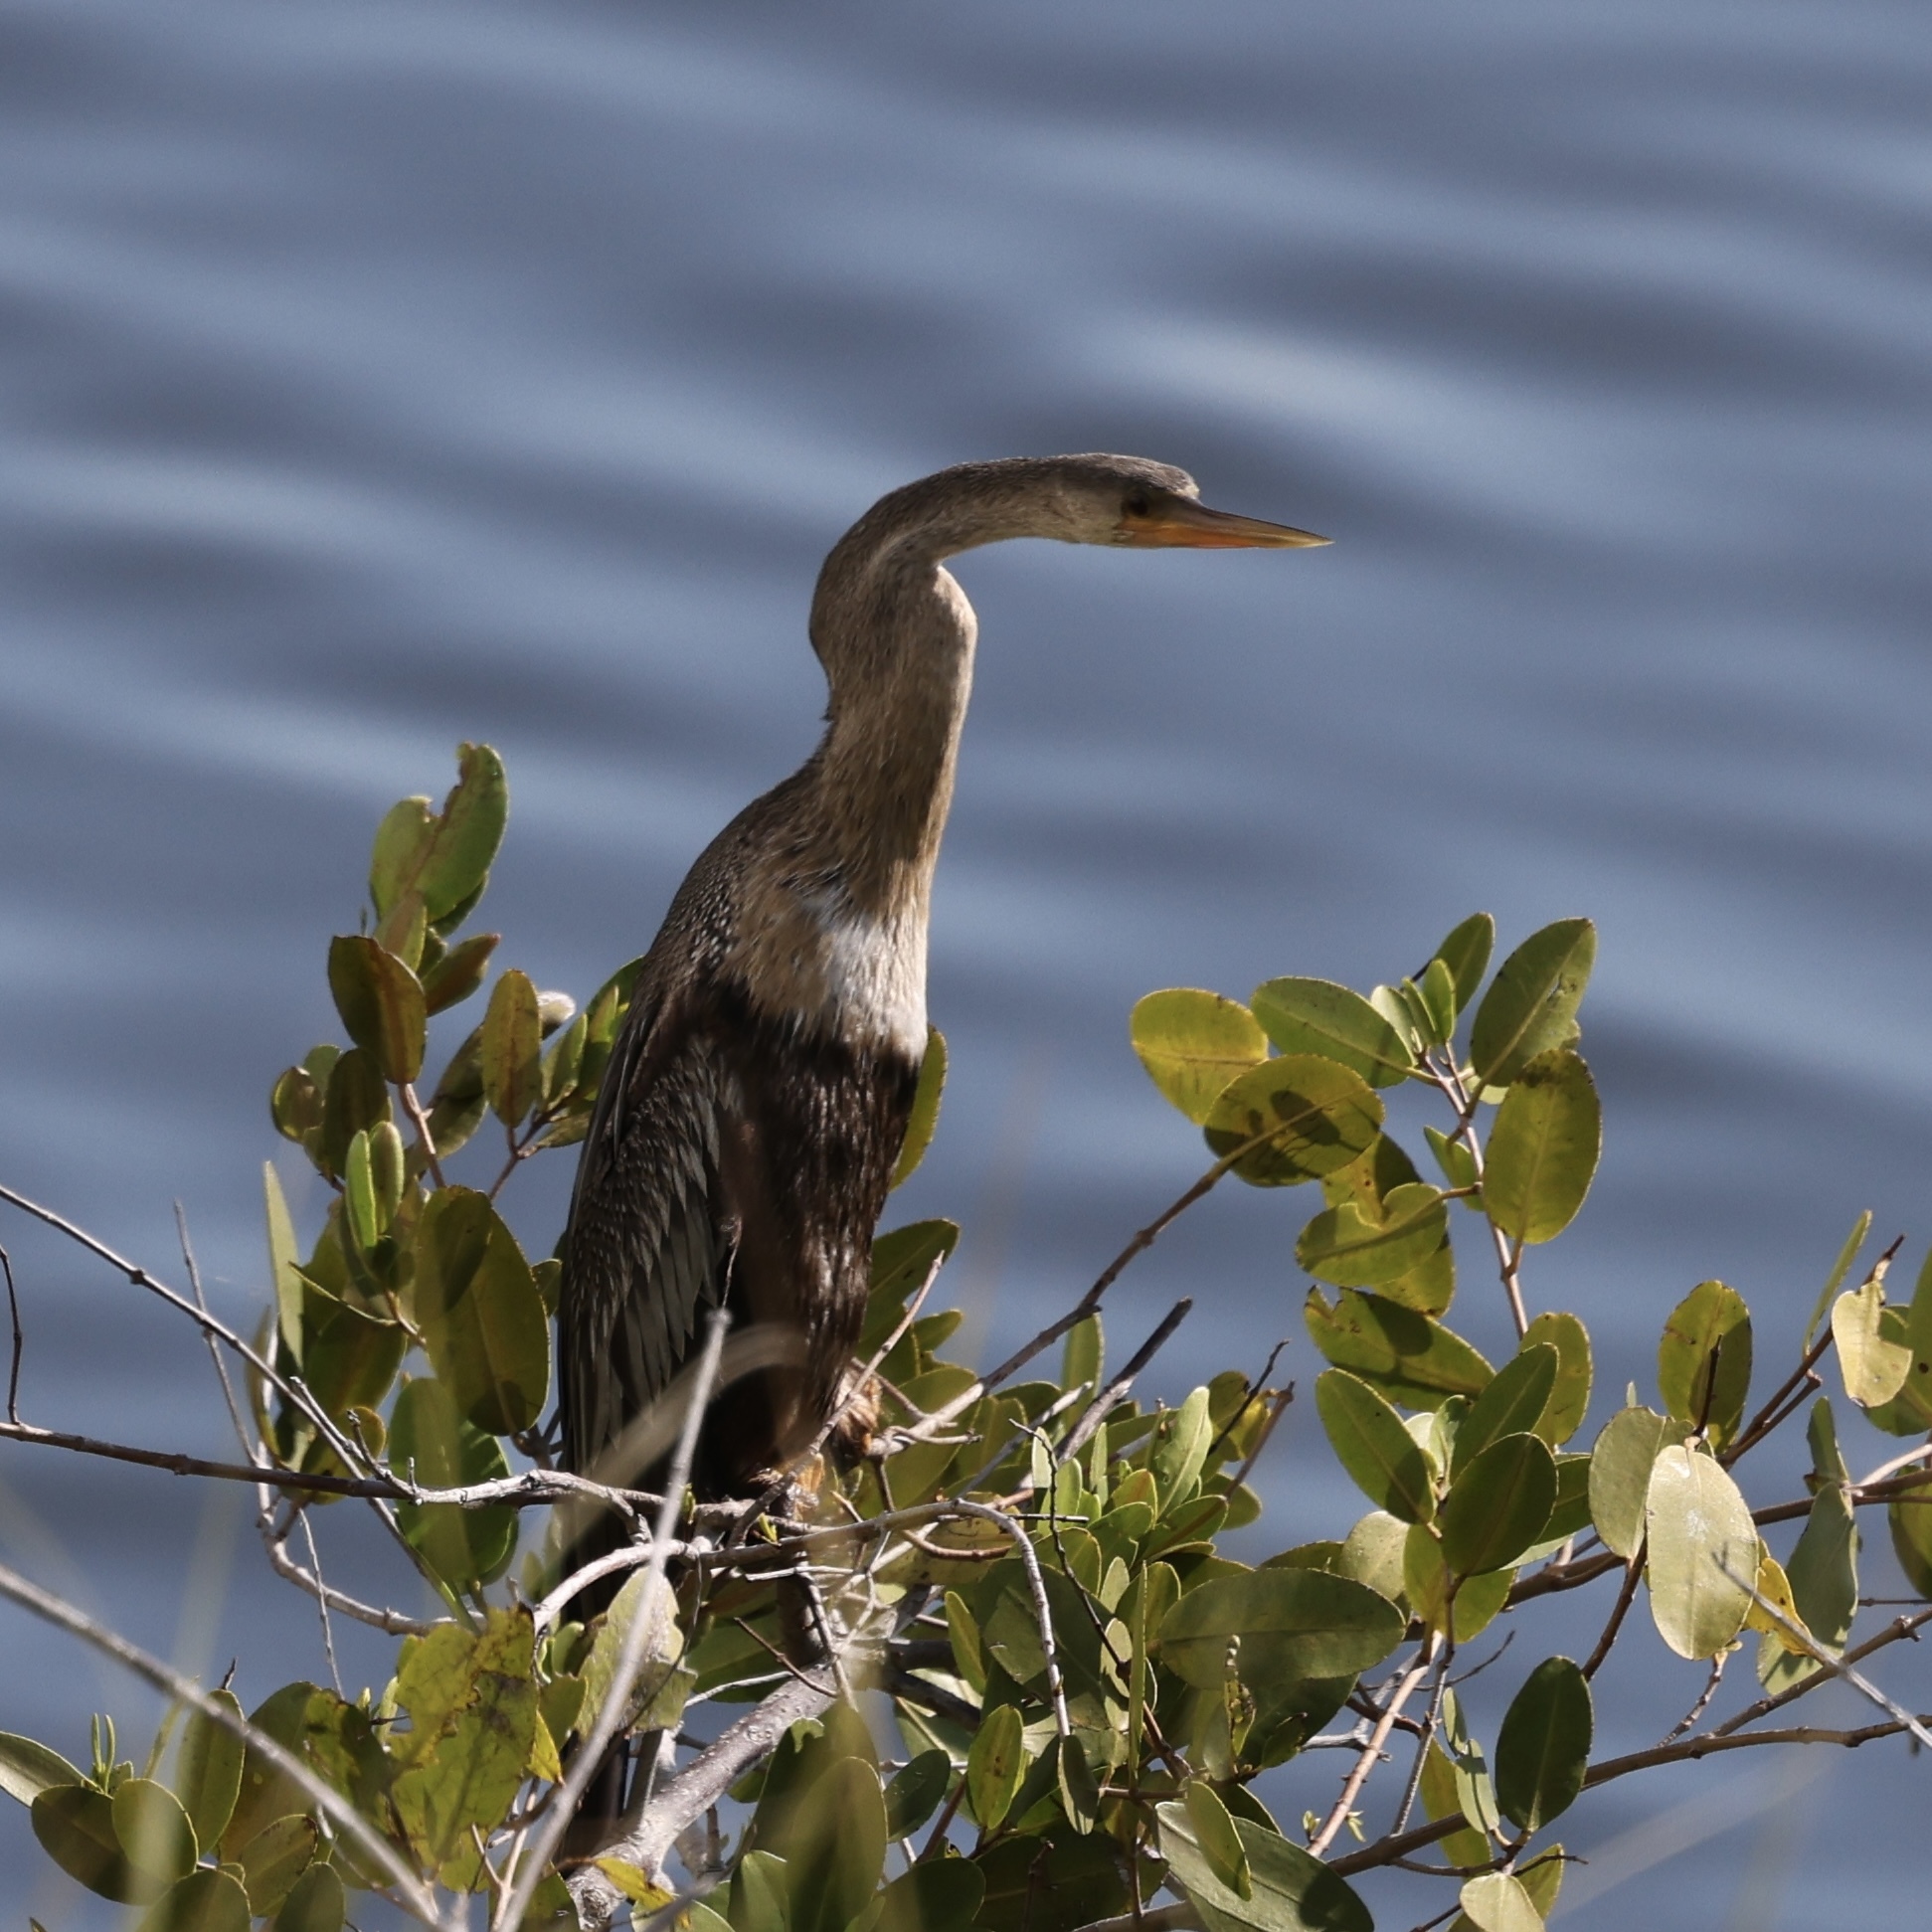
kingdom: Animalia
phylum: Chordata
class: Aves
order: Suliformes
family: Anhingidae
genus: Anhinga
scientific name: Anhinga anhinga
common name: Anhinga
